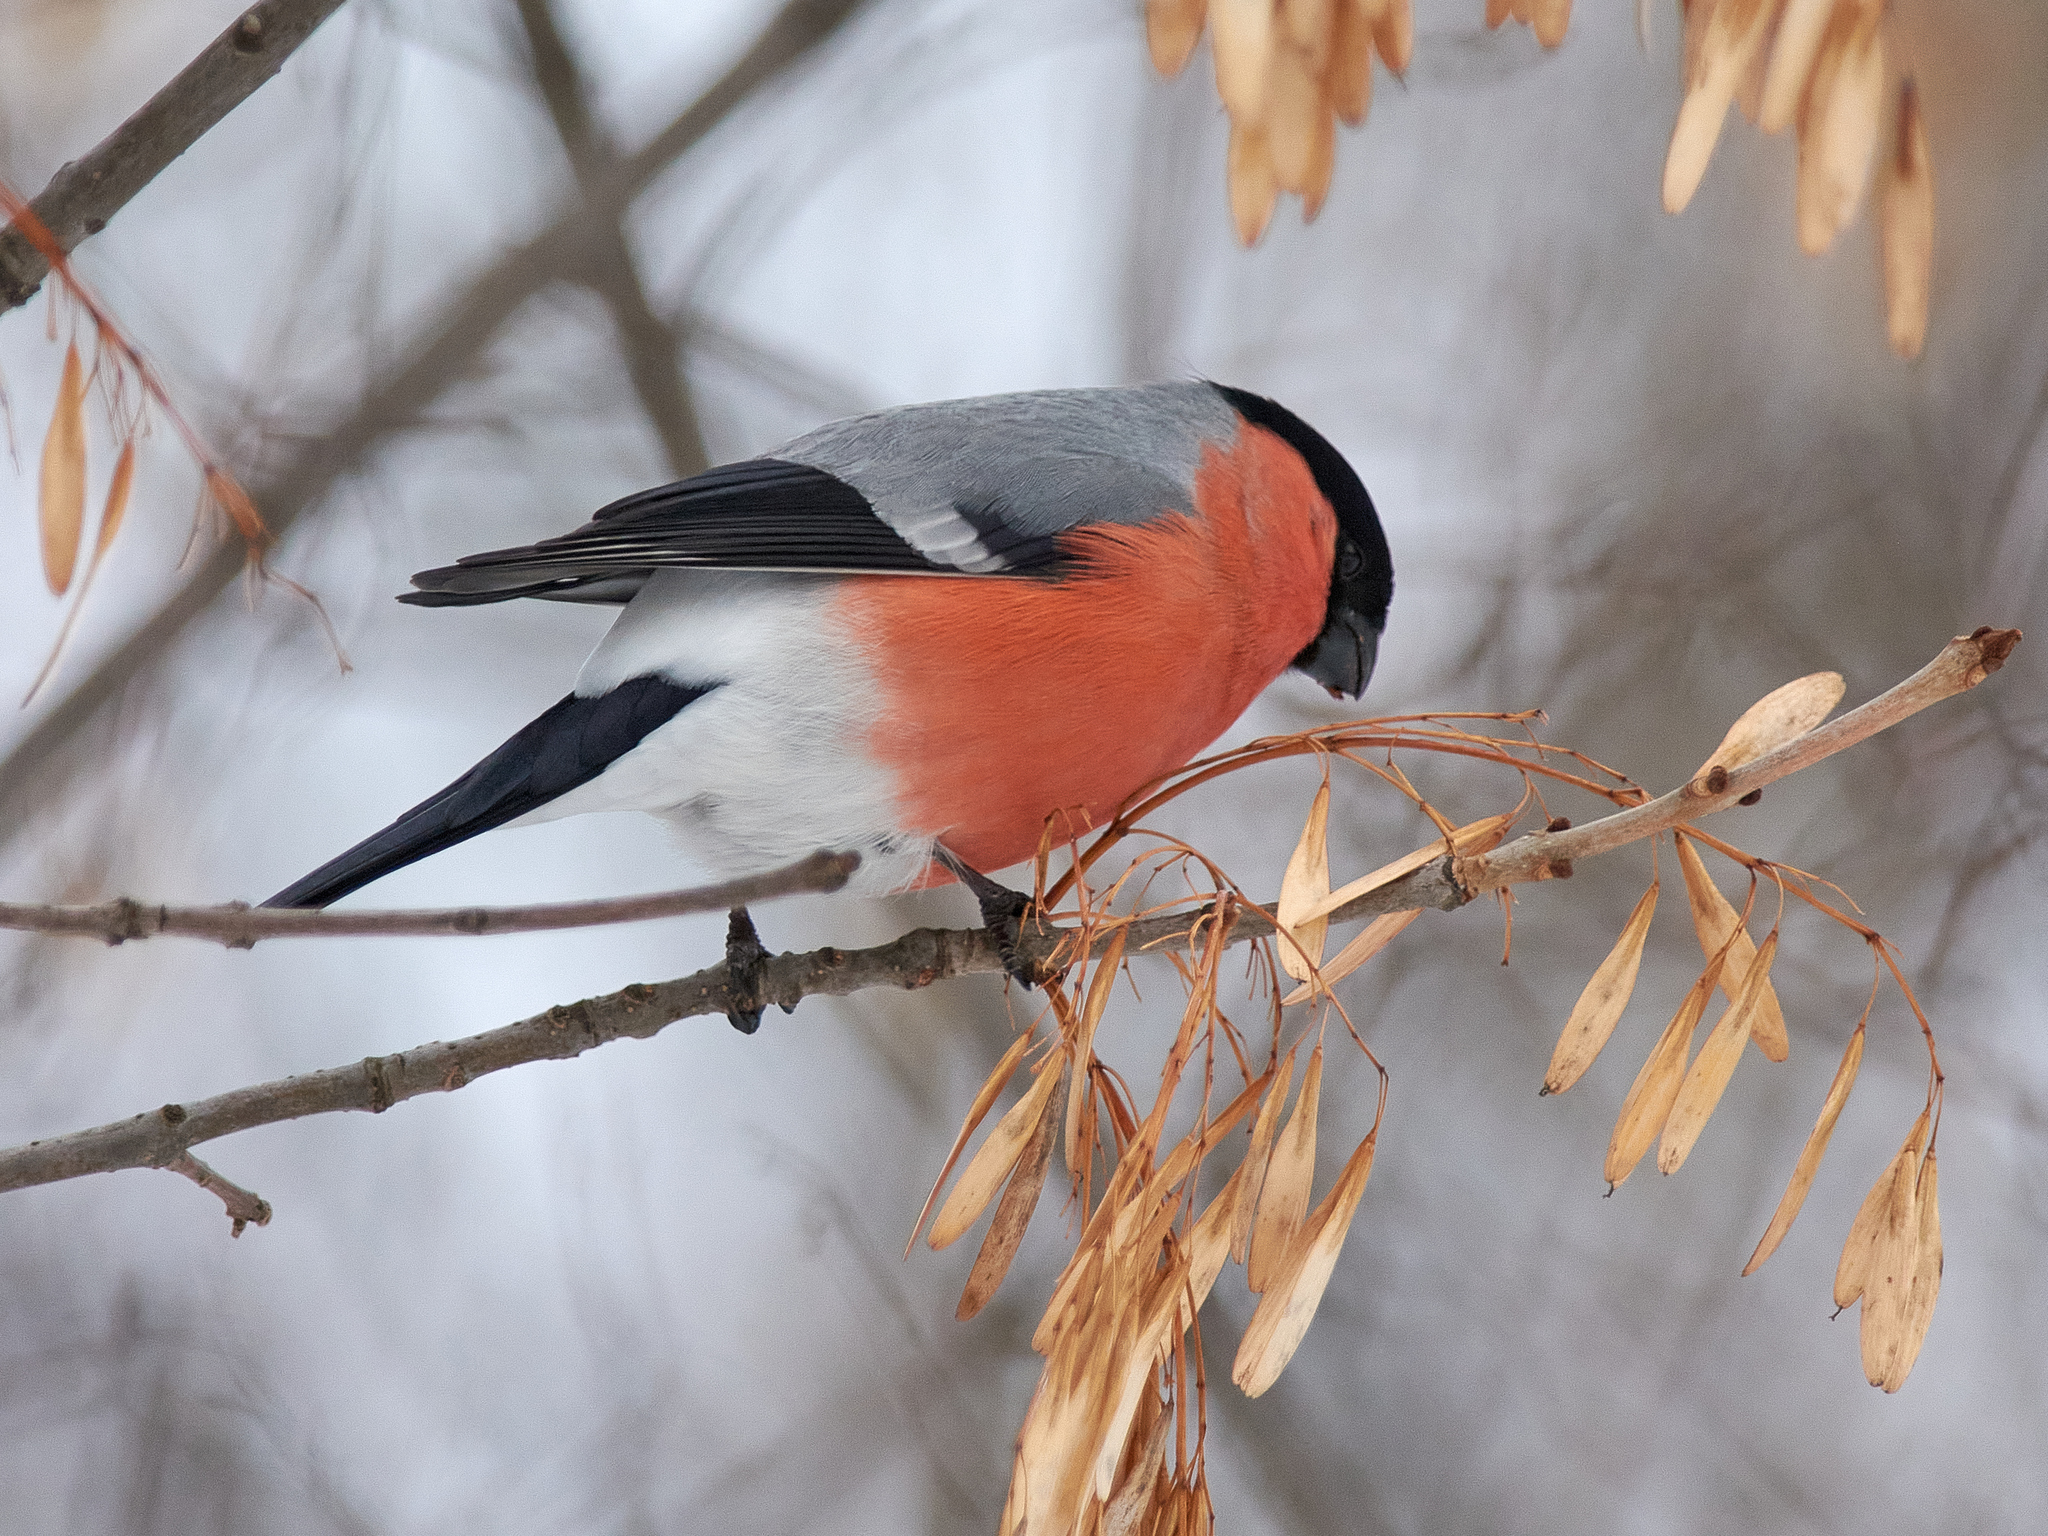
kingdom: Animalia
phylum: Chordata
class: Aves
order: Passeriformes
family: Fringillidae
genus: Pyrrhula
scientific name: Pyrrhula pyrrhula
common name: Eurasian bullfinch
